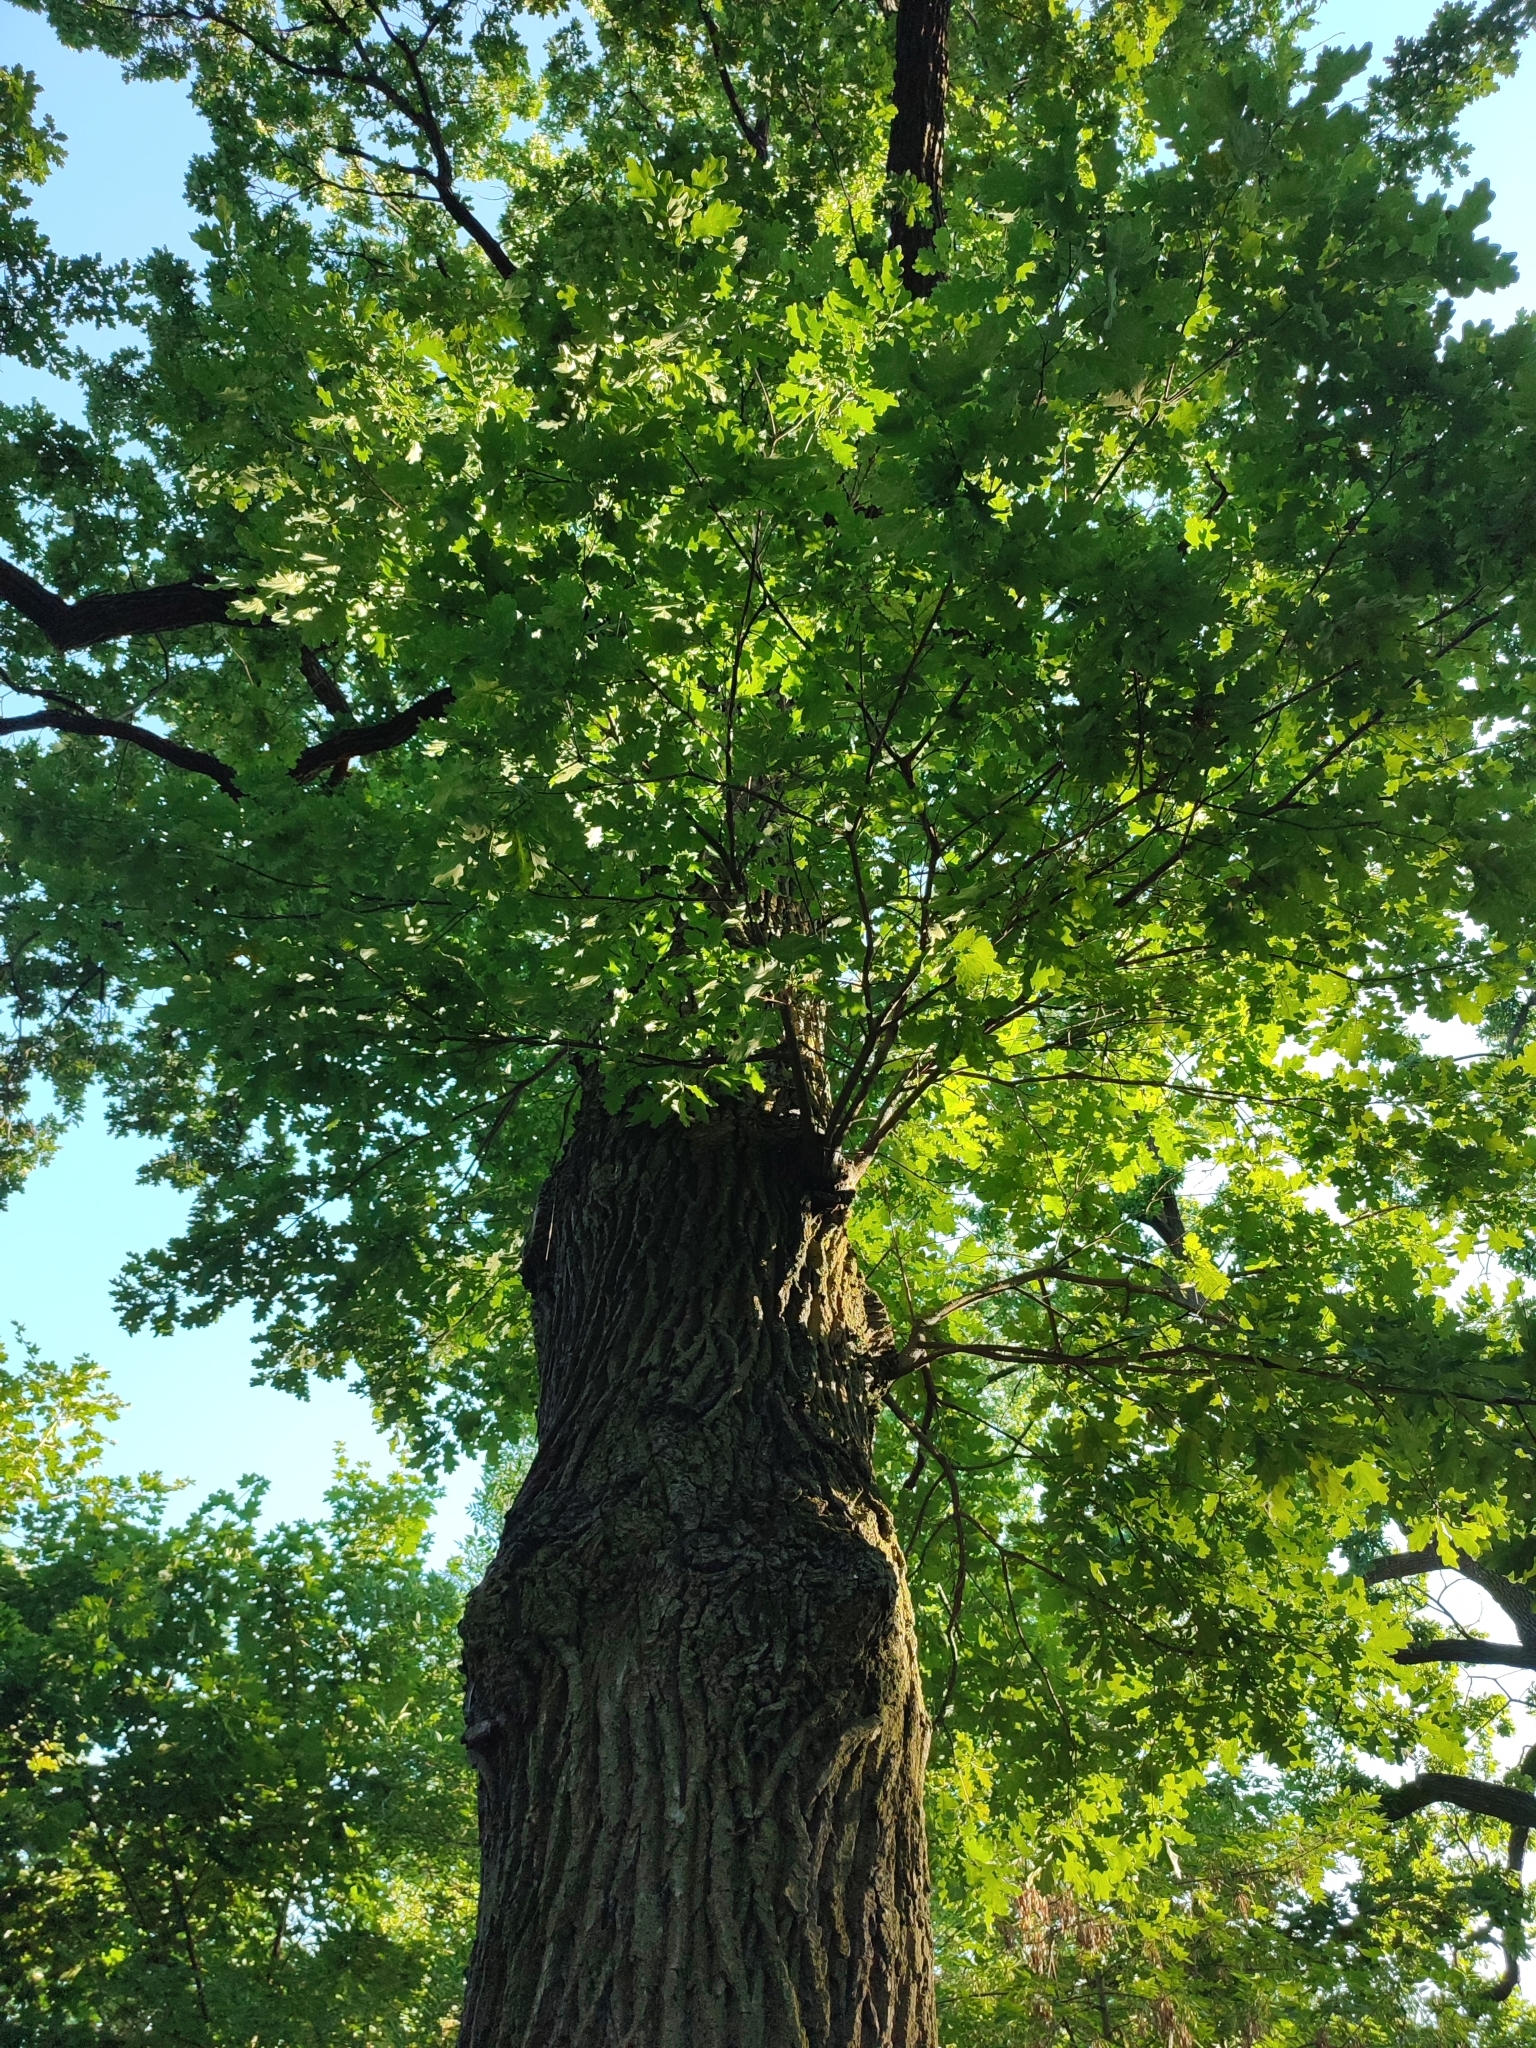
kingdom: Plantae
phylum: Tracheophyta
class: Magnoliopsida
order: Fagales
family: Fagaceae
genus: Quercus
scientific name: Quercus robur
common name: Pedunculate oak
